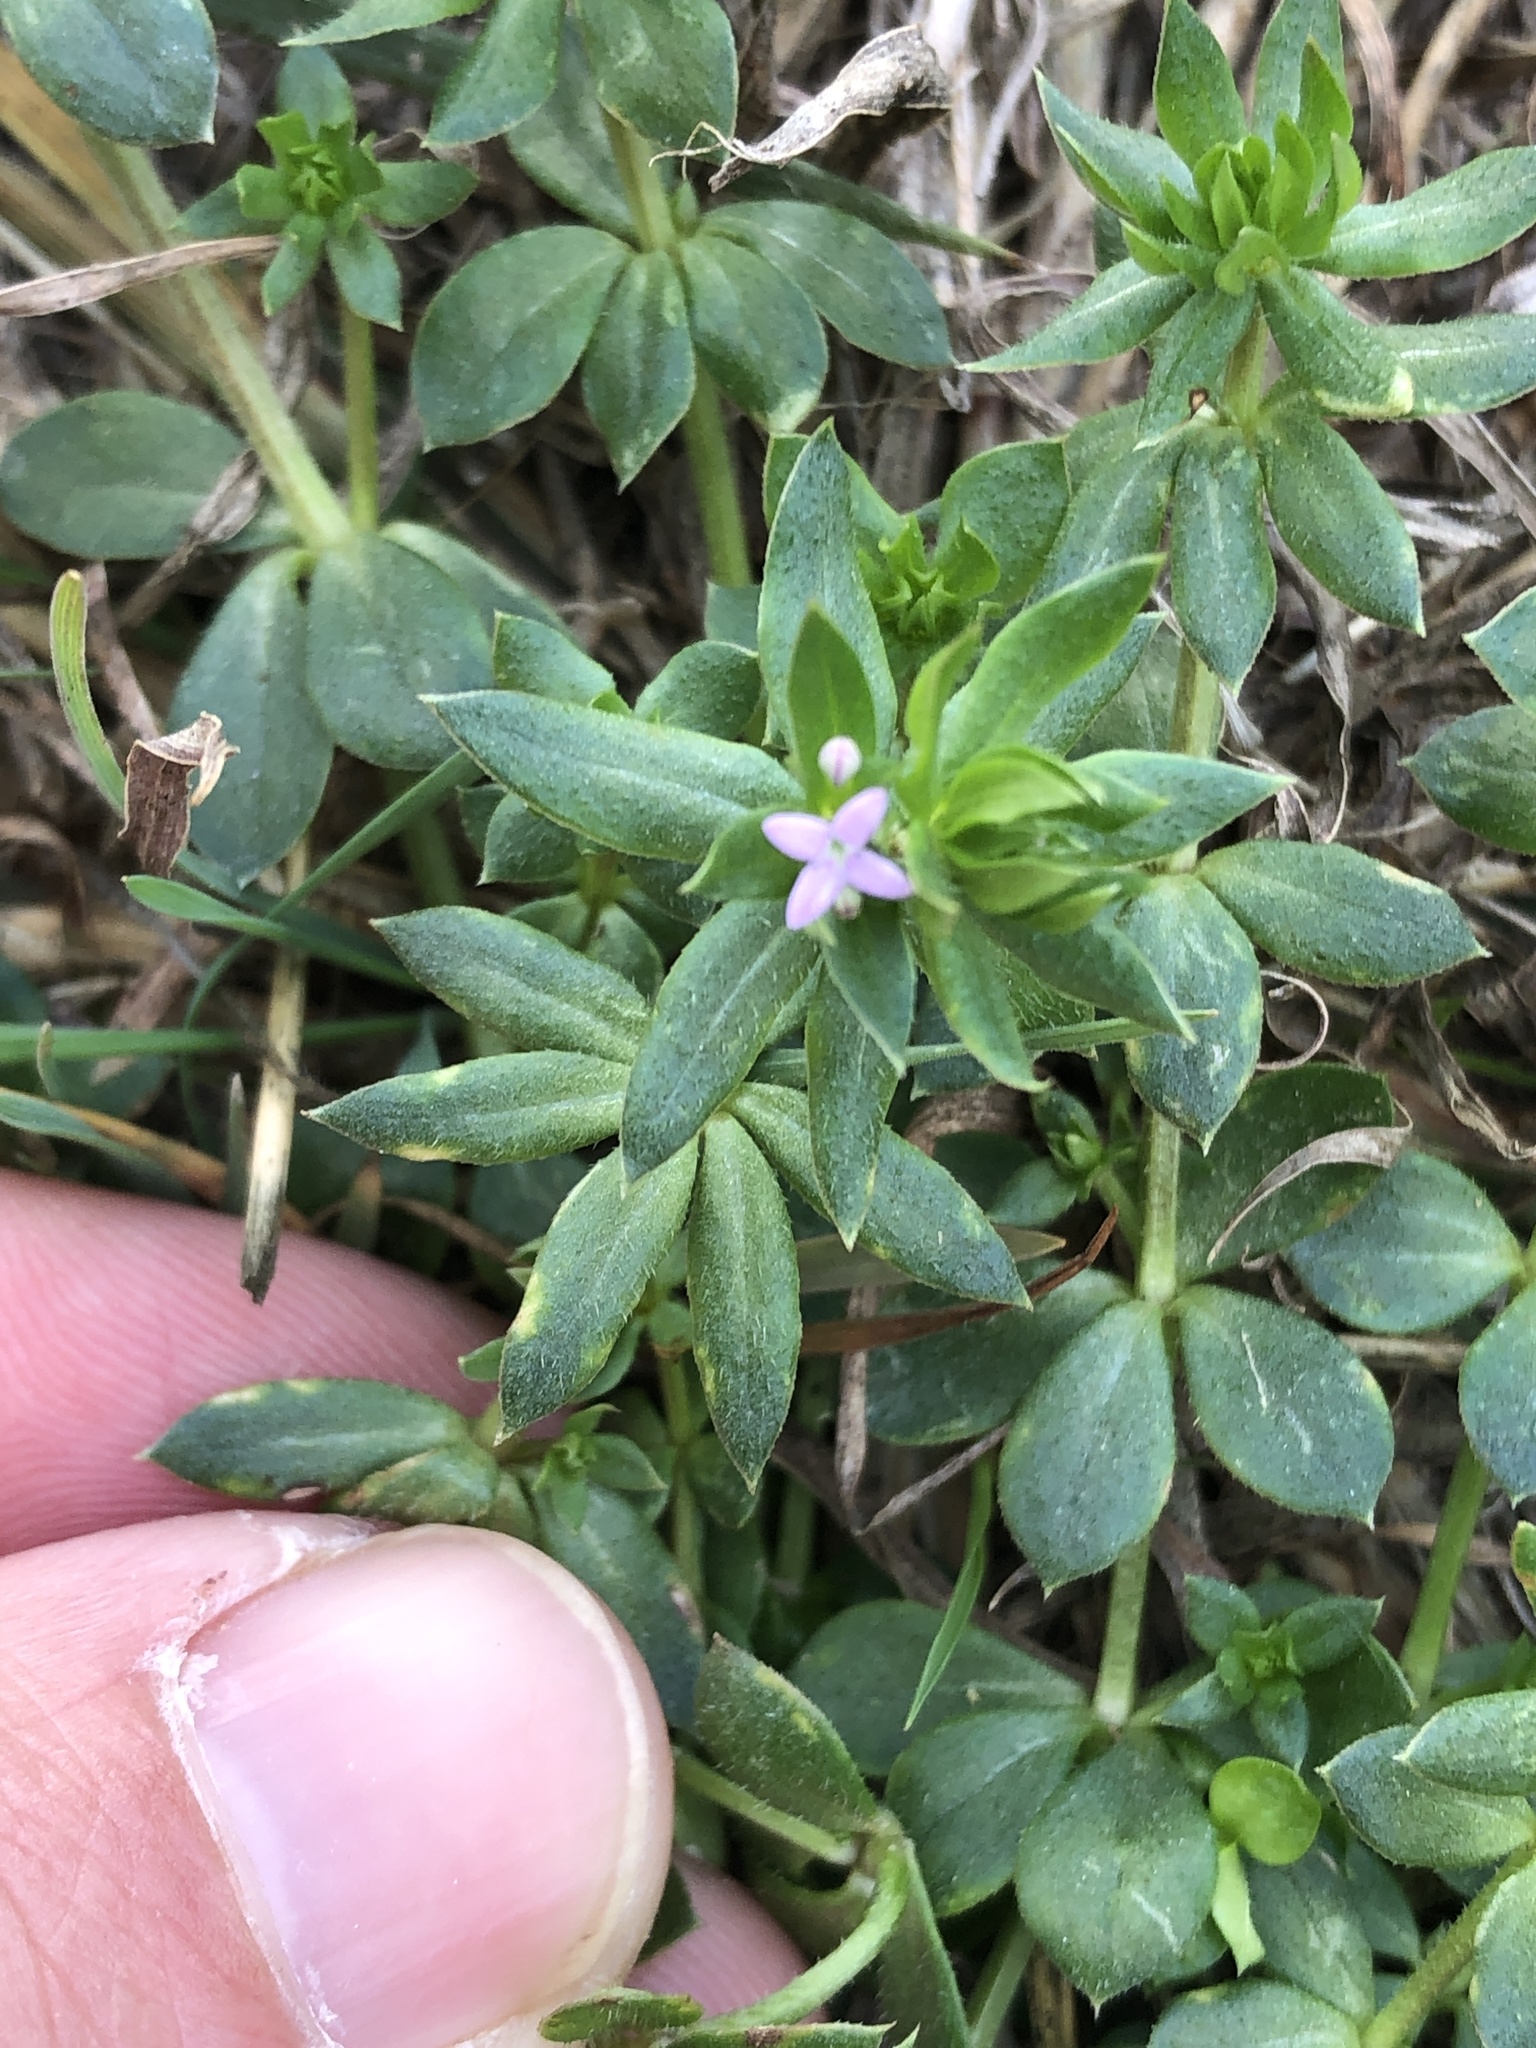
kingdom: Plantae
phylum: Tracheophyta
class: Magnoliopsida
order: Gentianales
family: Rubiaceae
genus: Sherardia
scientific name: Sherardia arvensis
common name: Field madder
